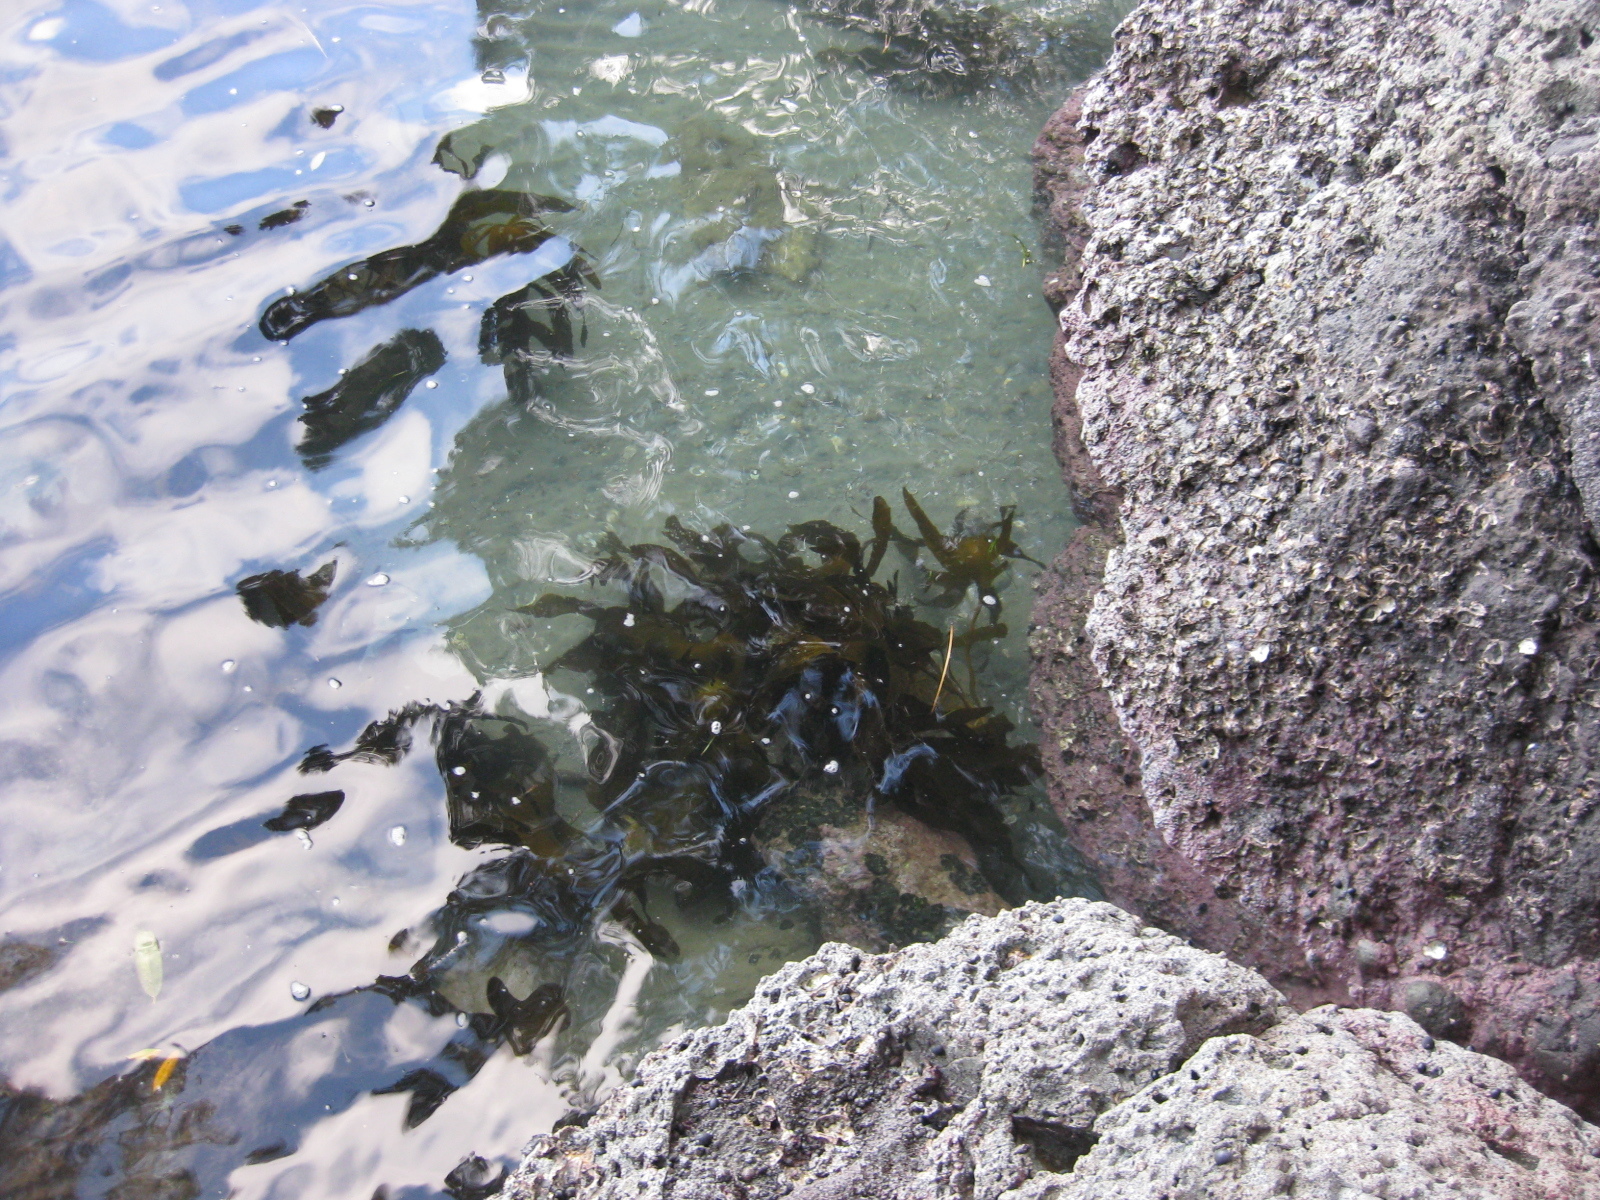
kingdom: Chromista
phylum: Ochrophyta
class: Phaeophyceae
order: Laminariales
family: Lessoniaceae
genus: Ecklonia
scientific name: Ecklonia radiata
